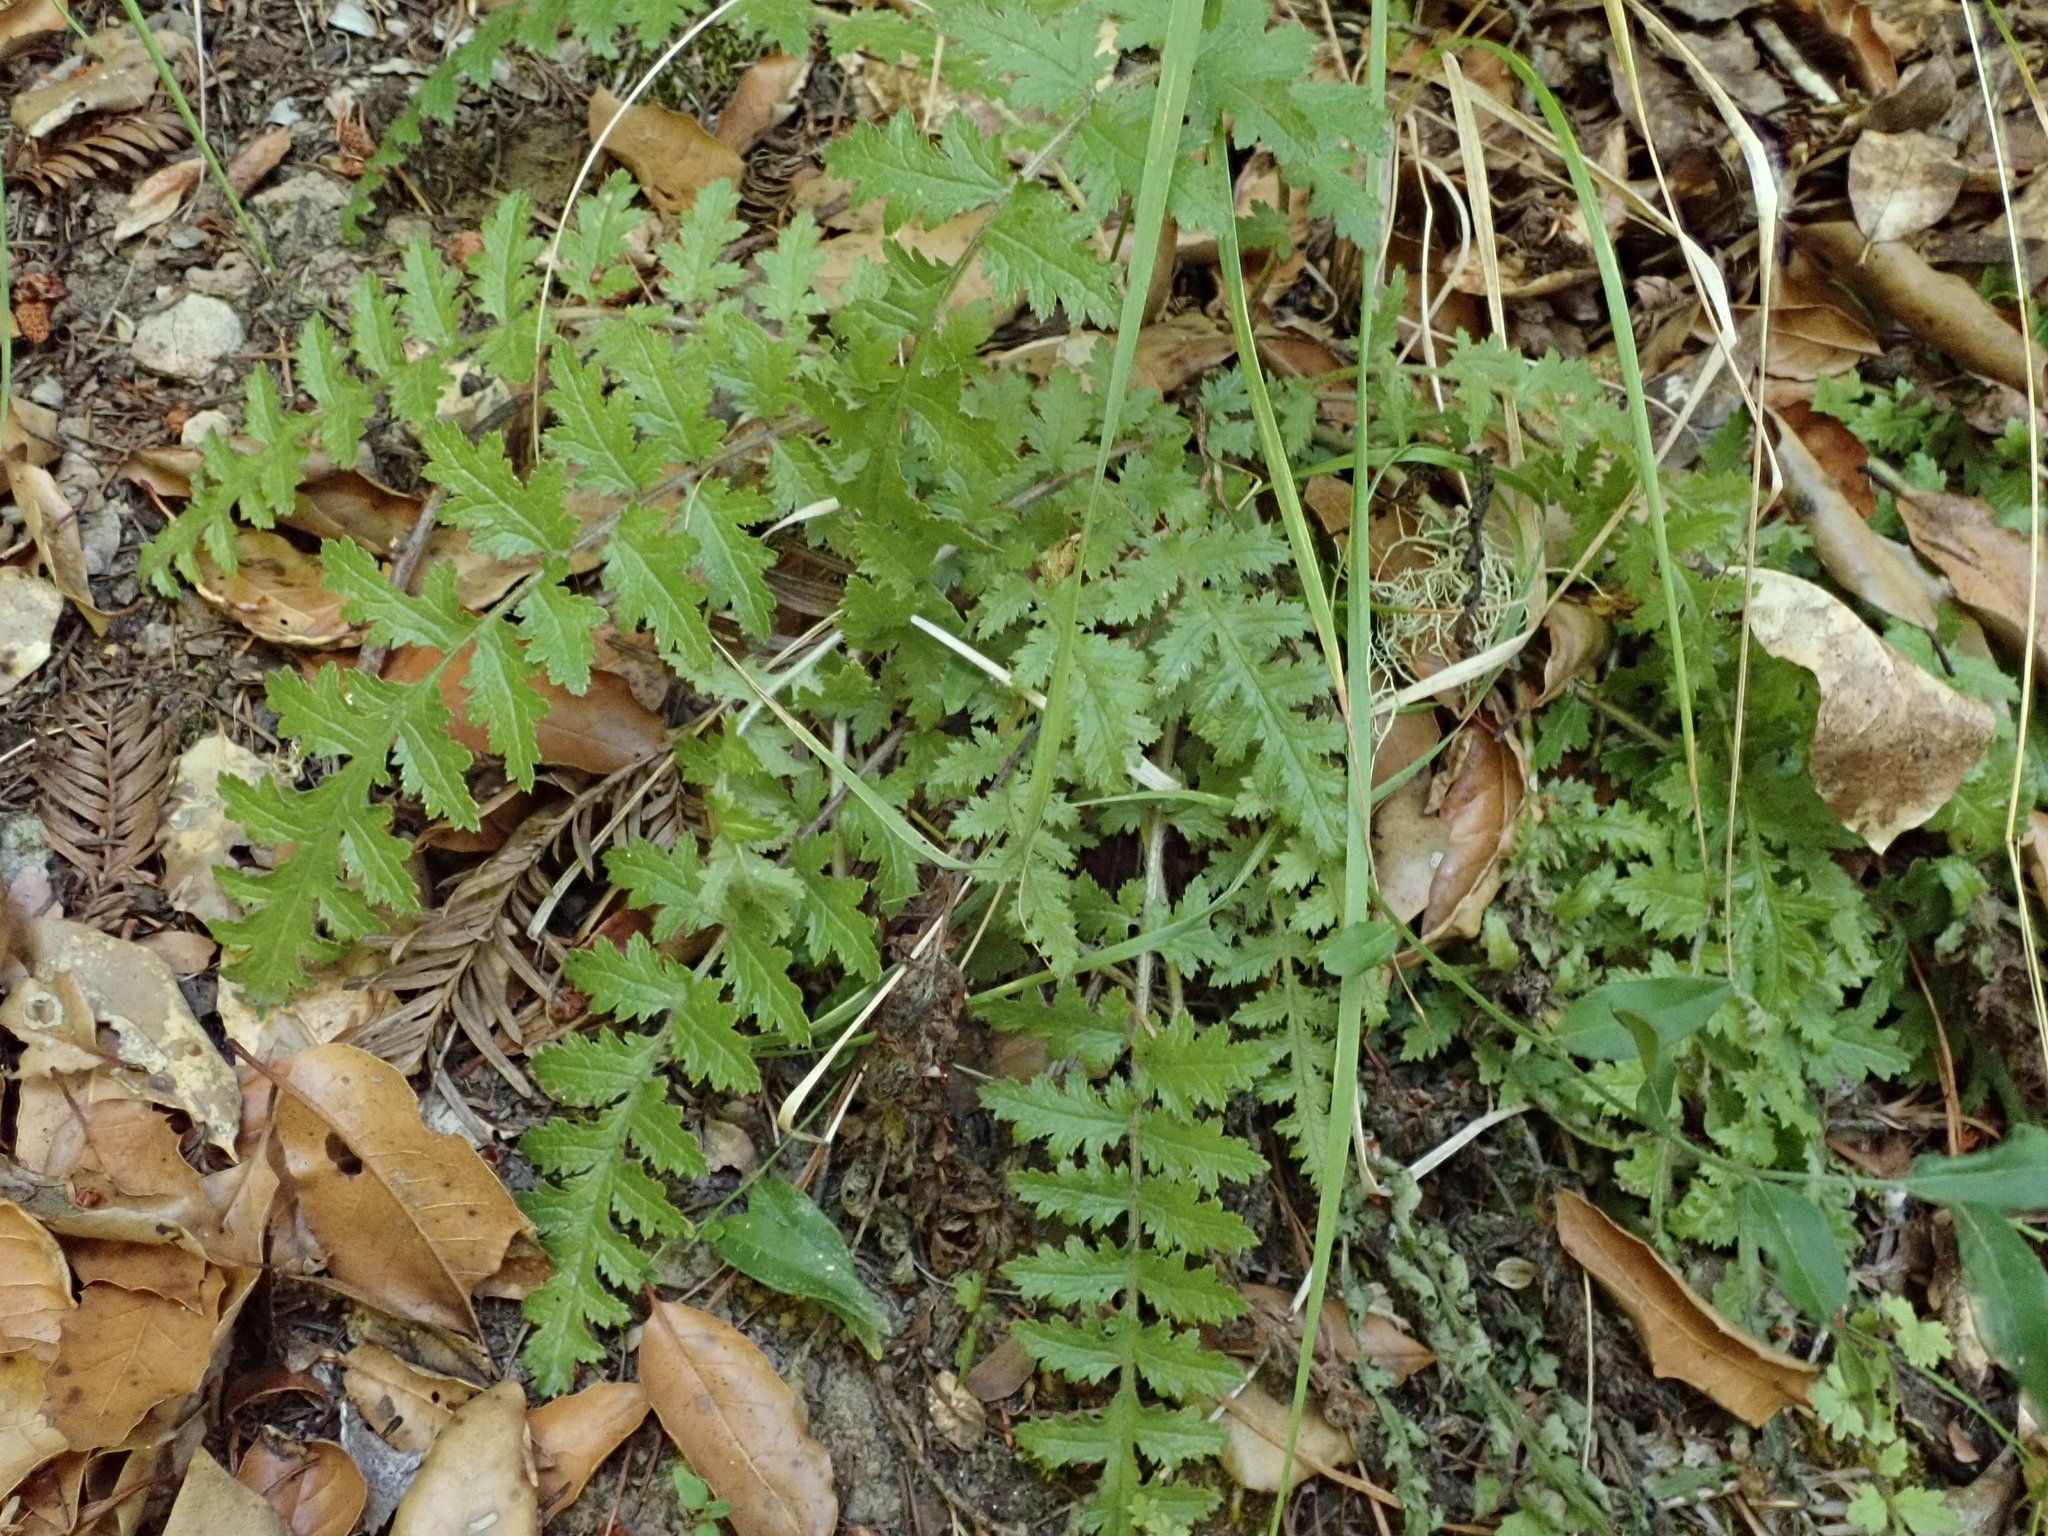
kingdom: Plantae
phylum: Tracheophyta
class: Magnoliopsida
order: Lamiales
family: Orobanchaceae
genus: Pedicularis
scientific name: Pedicularis dudleyi
